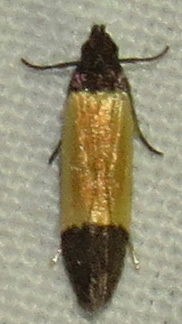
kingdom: Animalia
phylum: Arthropoda
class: Insecta
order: Lepidoptera
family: Gelechiidae
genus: Anacampsis
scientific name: Anacampsis coverdalella
